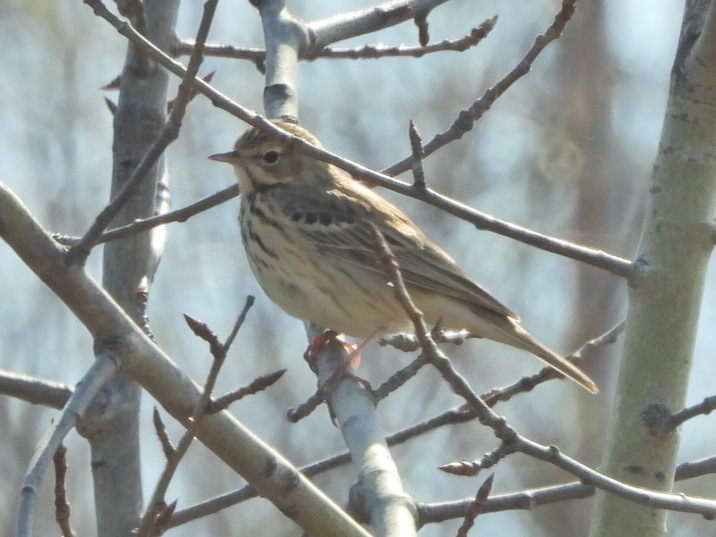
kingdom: Animalia
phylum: Chordata
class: Aves
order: Passeriformes
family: Motacillidae
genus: Anthus
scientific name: Anthus trivialis
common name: Tree pipit
